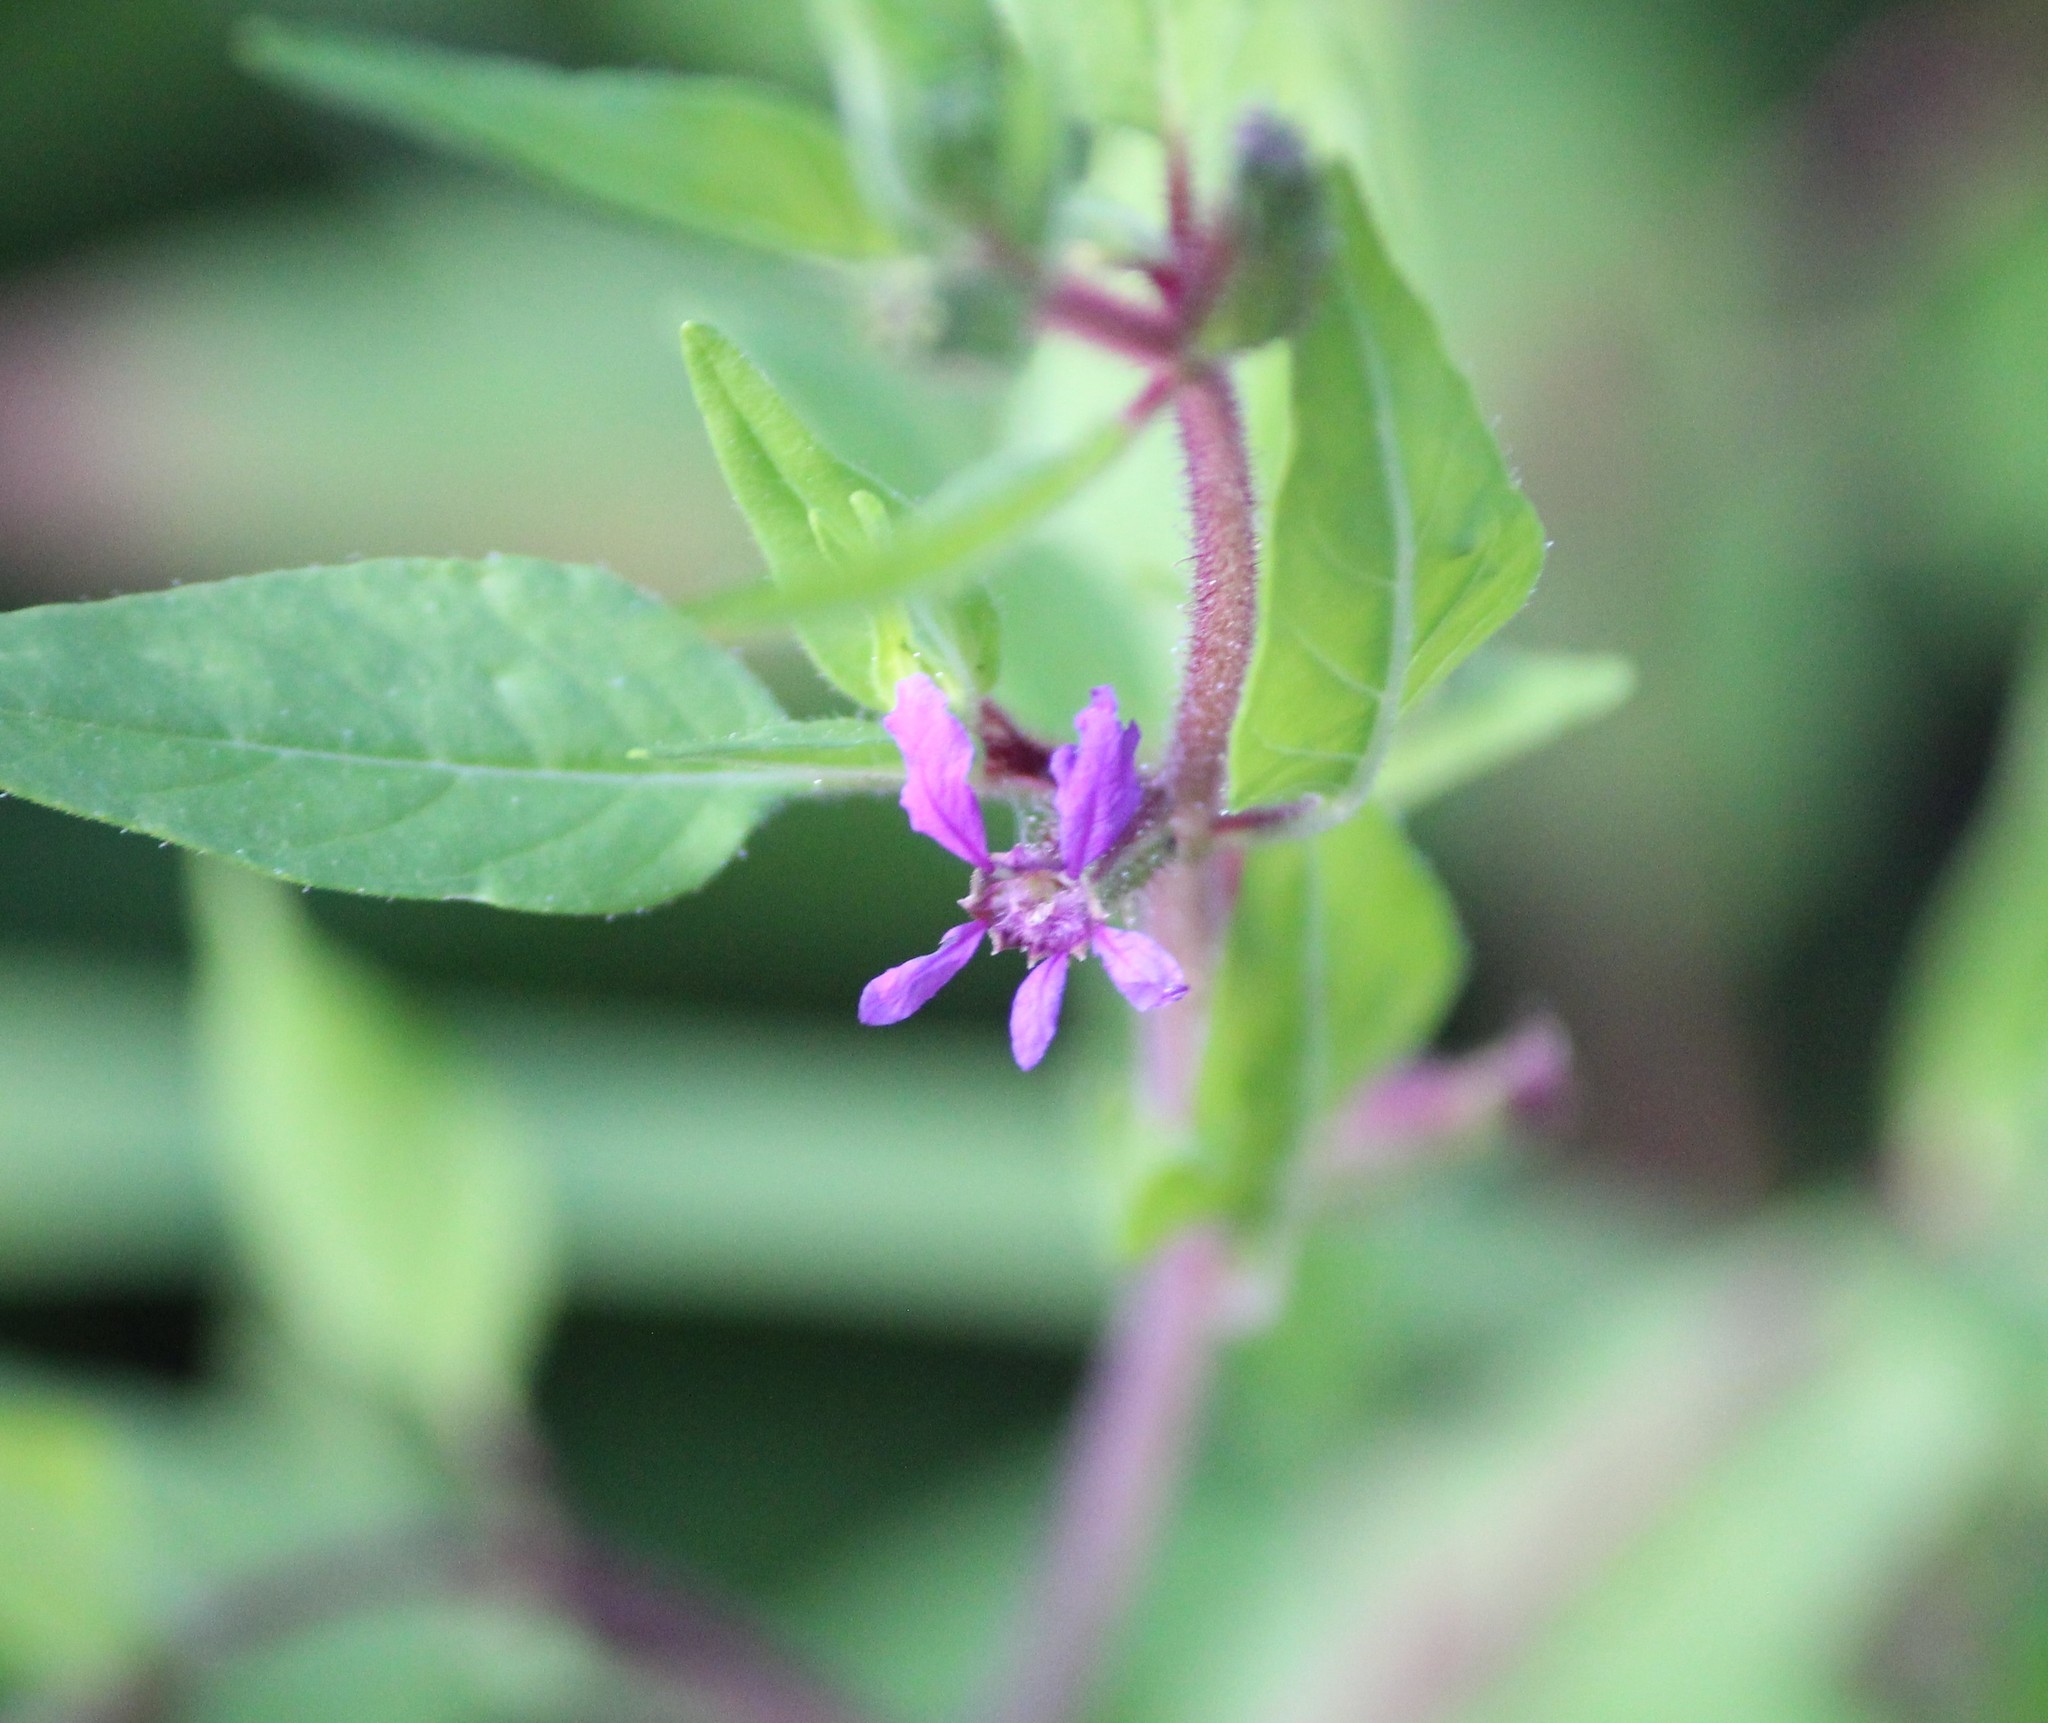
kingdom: Plantae
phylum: Tracheophyta
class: Magnoliopsida
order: Myrtales
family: Lythraceae
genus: Cuphea
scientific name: Cuphea viscosissima
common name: Clammy cuphea
